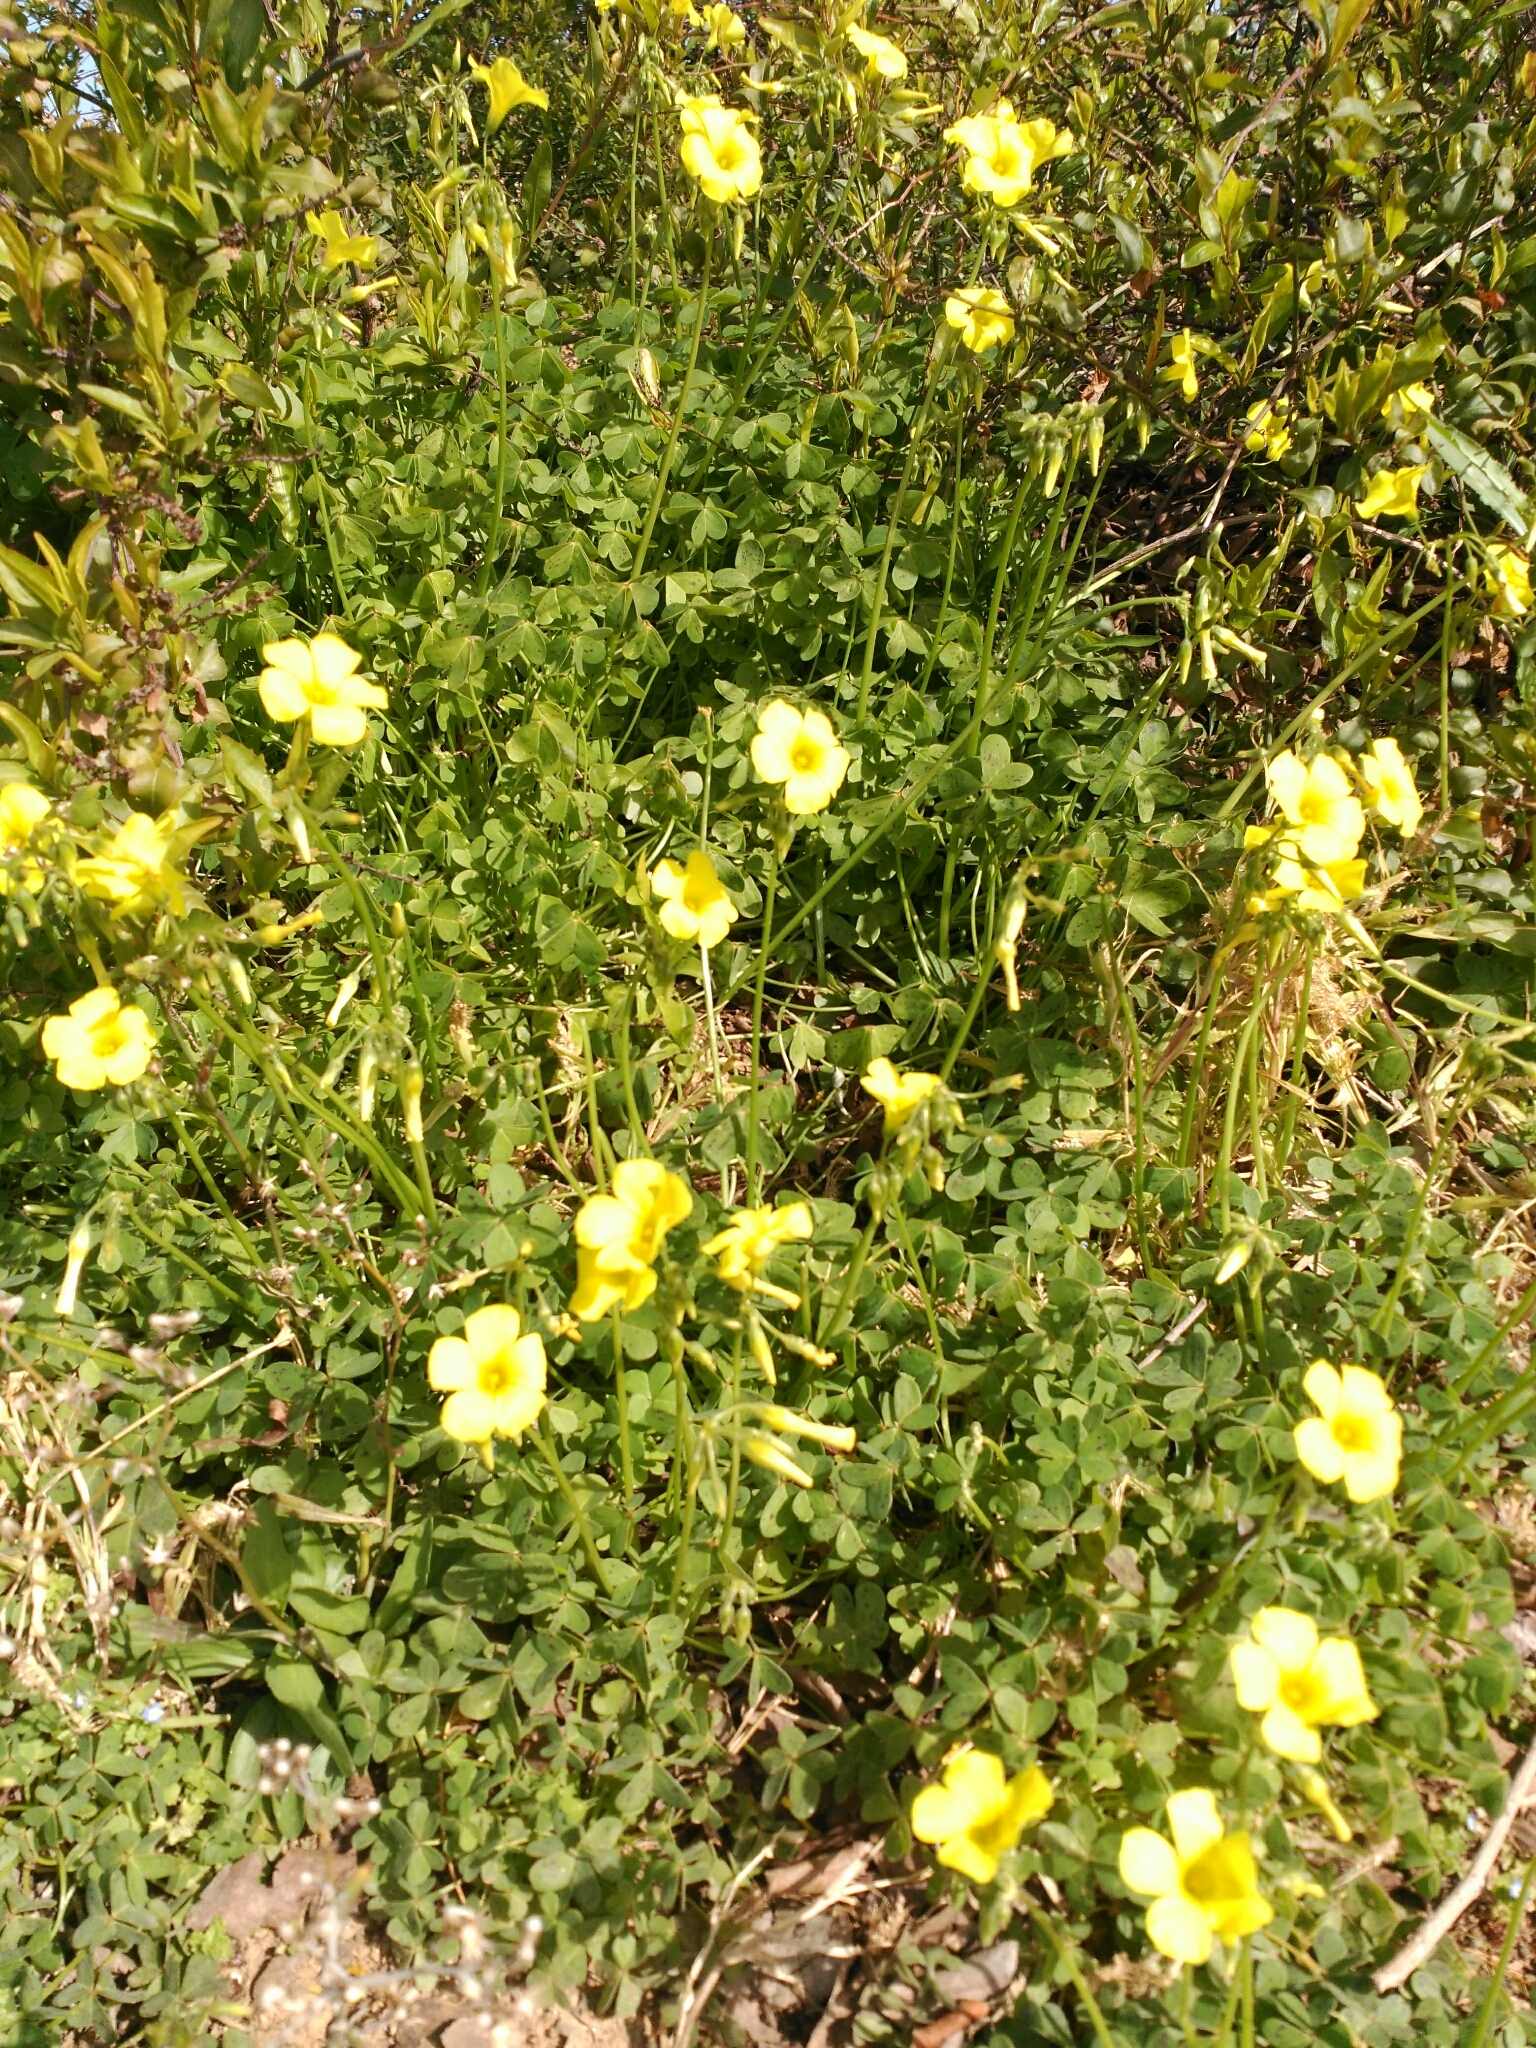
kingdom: Plantae
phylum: Tracheophyta
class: Magnoliopsida
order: Oxalidales
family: Oxalidaceae
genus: Oxalis
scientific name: Oxalis pes-caprae
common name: Bermuda-buttercup
